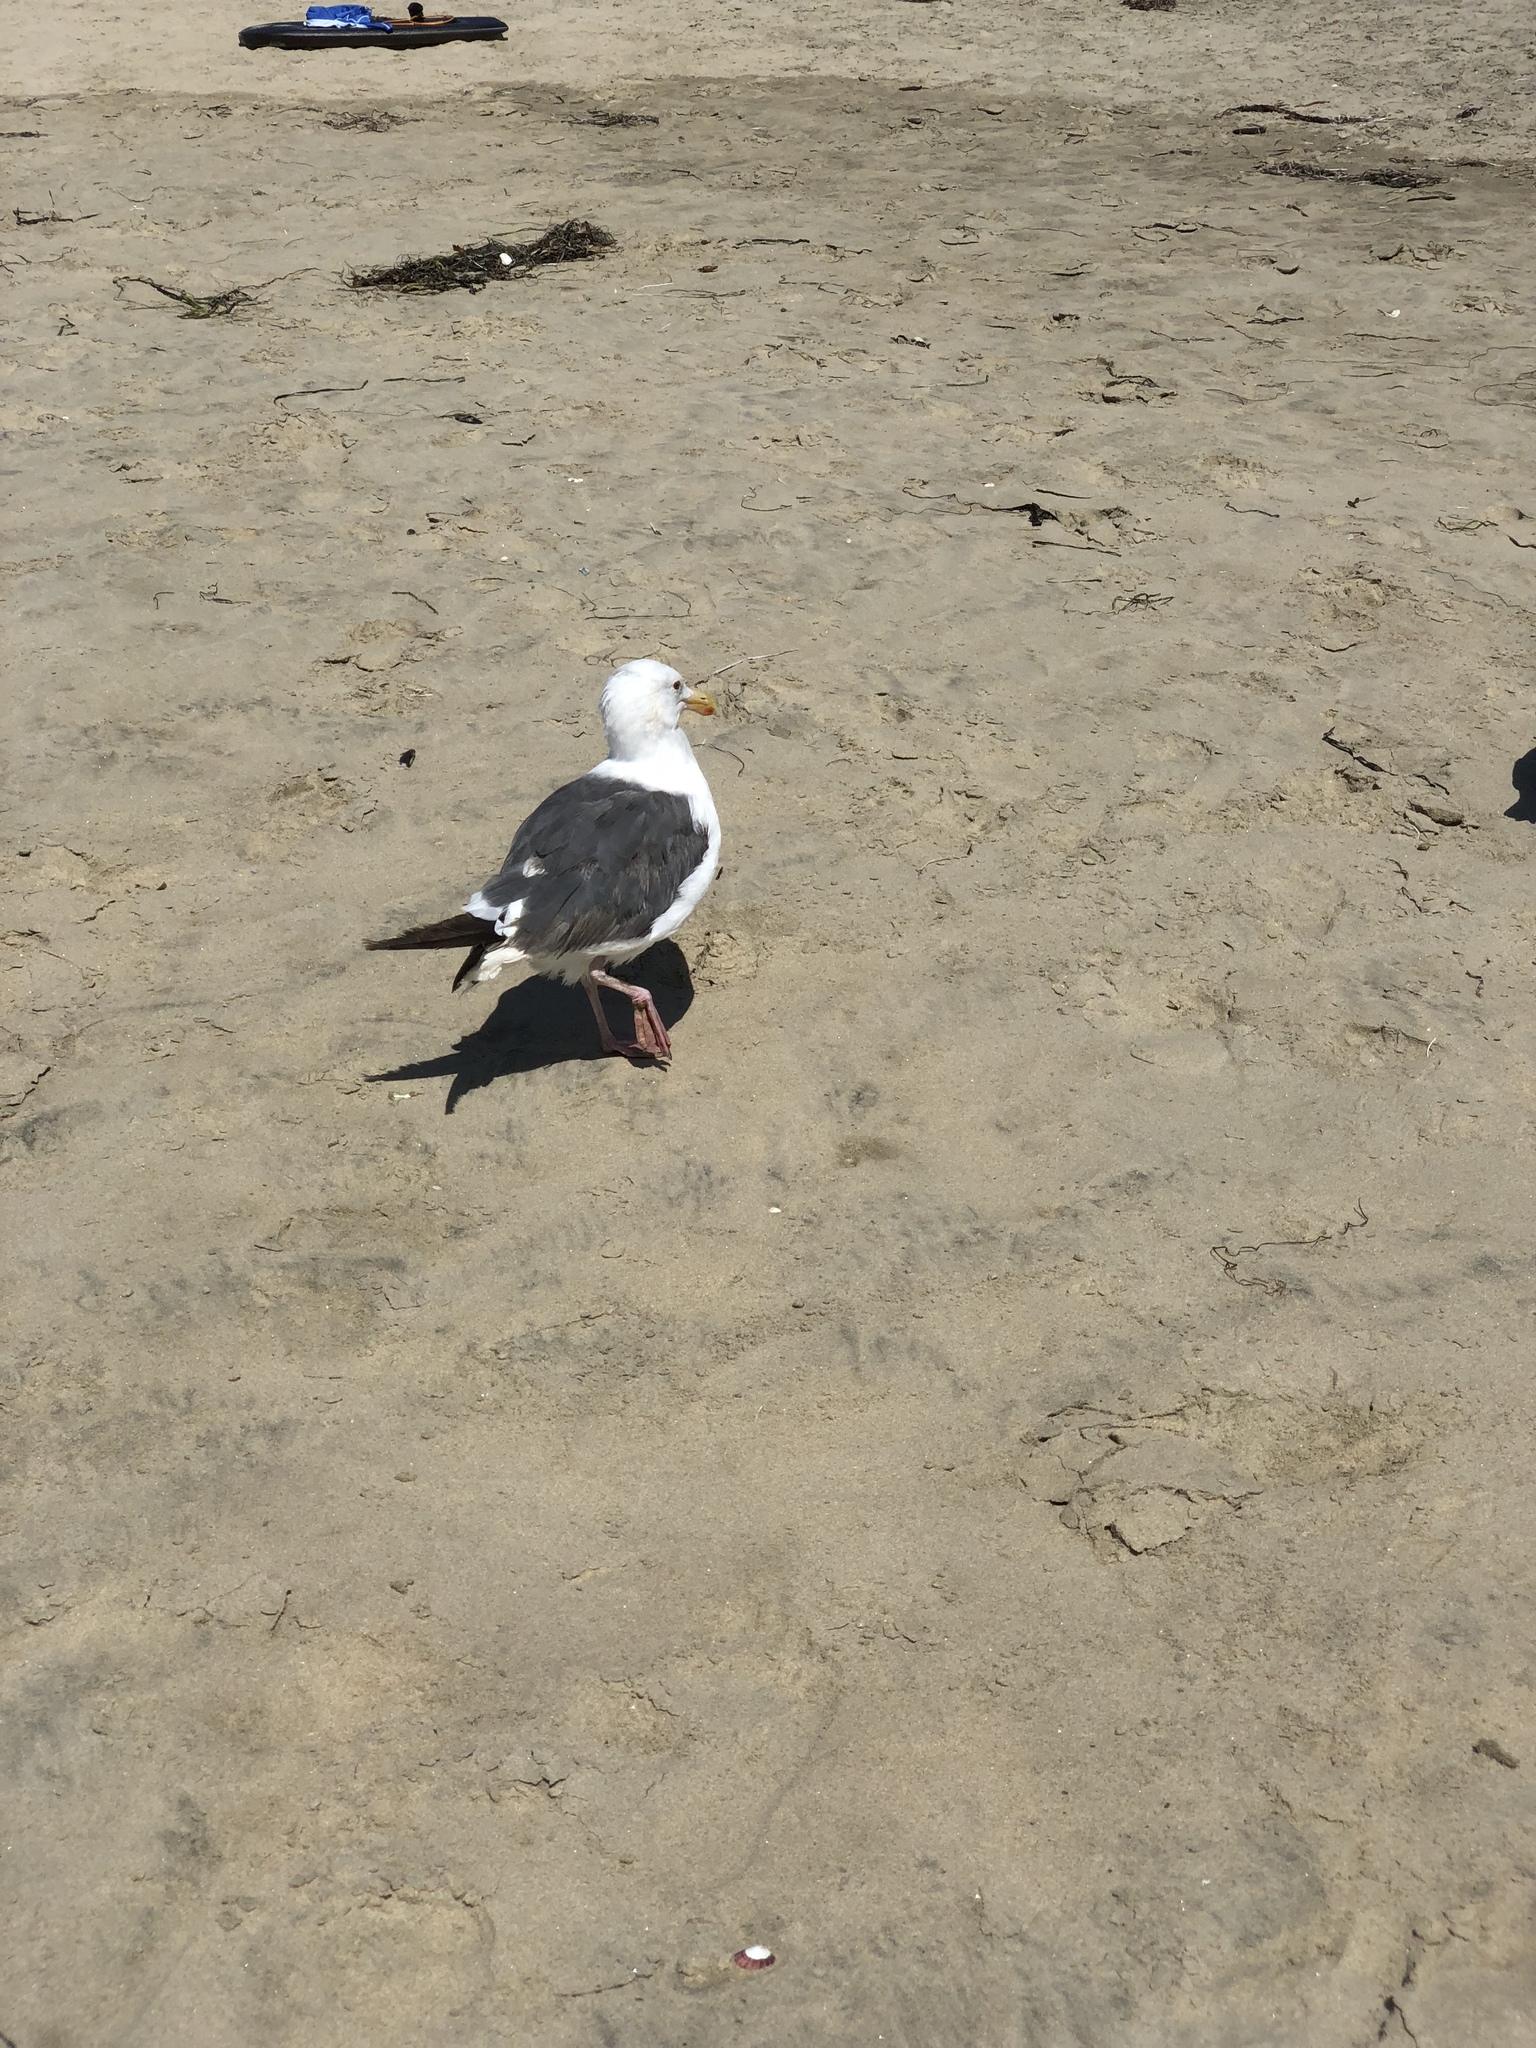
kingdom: Animalia
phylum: Chordata
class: Aves
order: Charadriiformes
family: Laridae
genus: Larus
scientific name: Larus occidentalis
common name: Western gull
